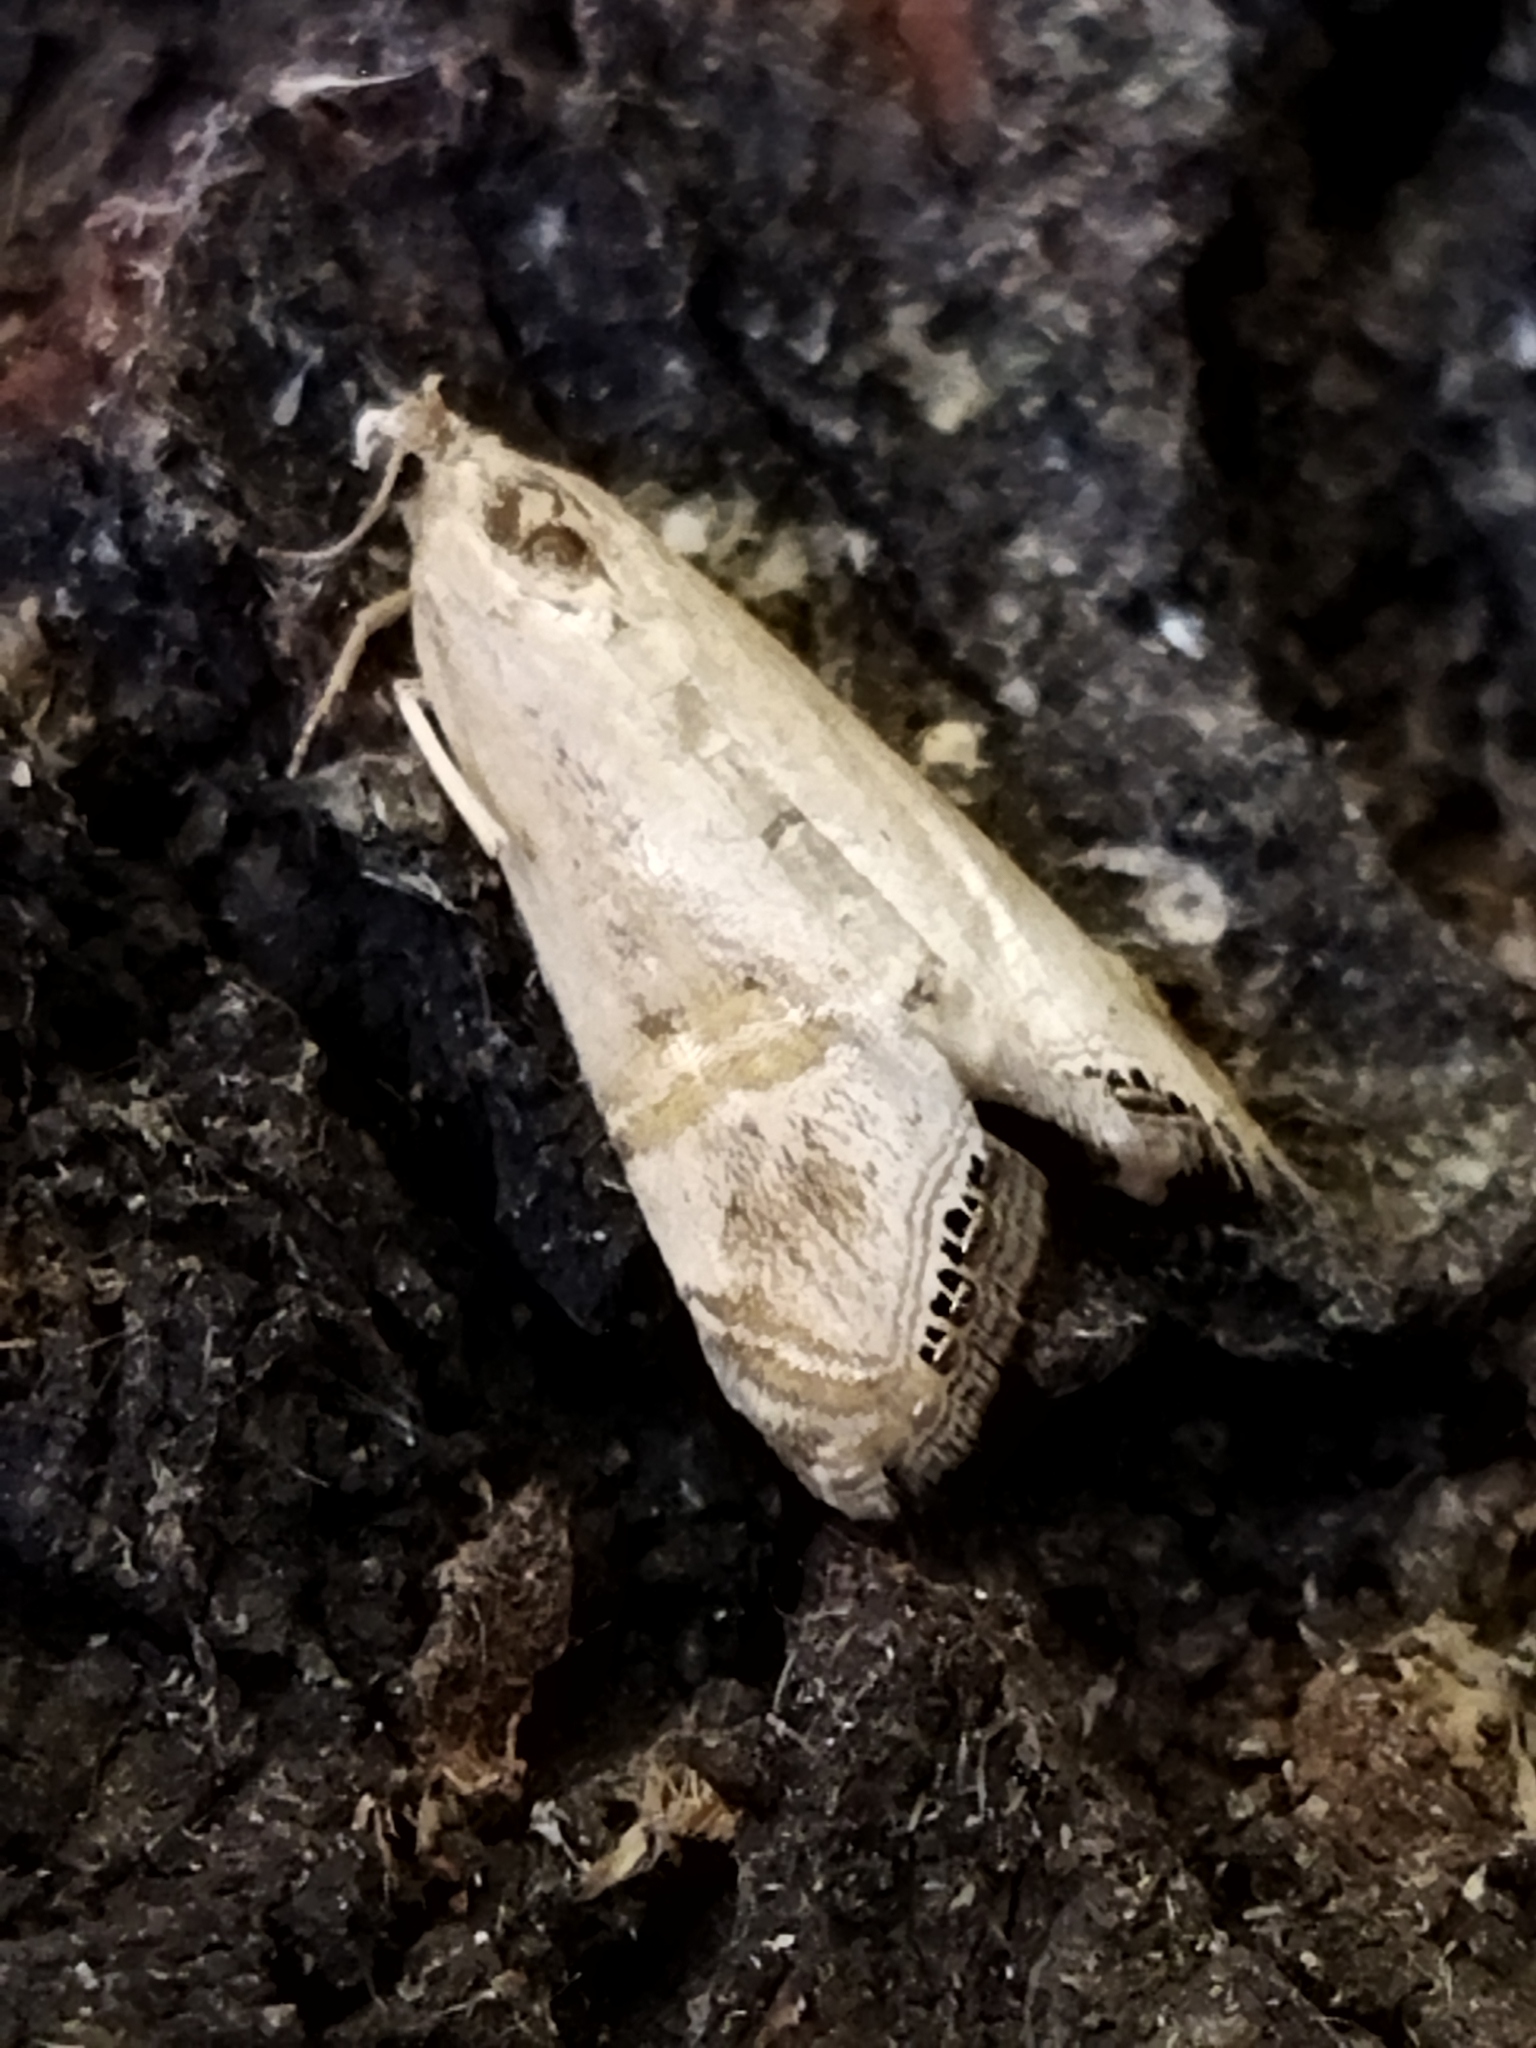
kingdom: Animalia
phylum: Arthropoda
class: Insecta
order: Lepidoptera
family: Crambidae
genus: Euchromius
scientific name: Euchromius ocellea
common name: Necklace veneer moth
